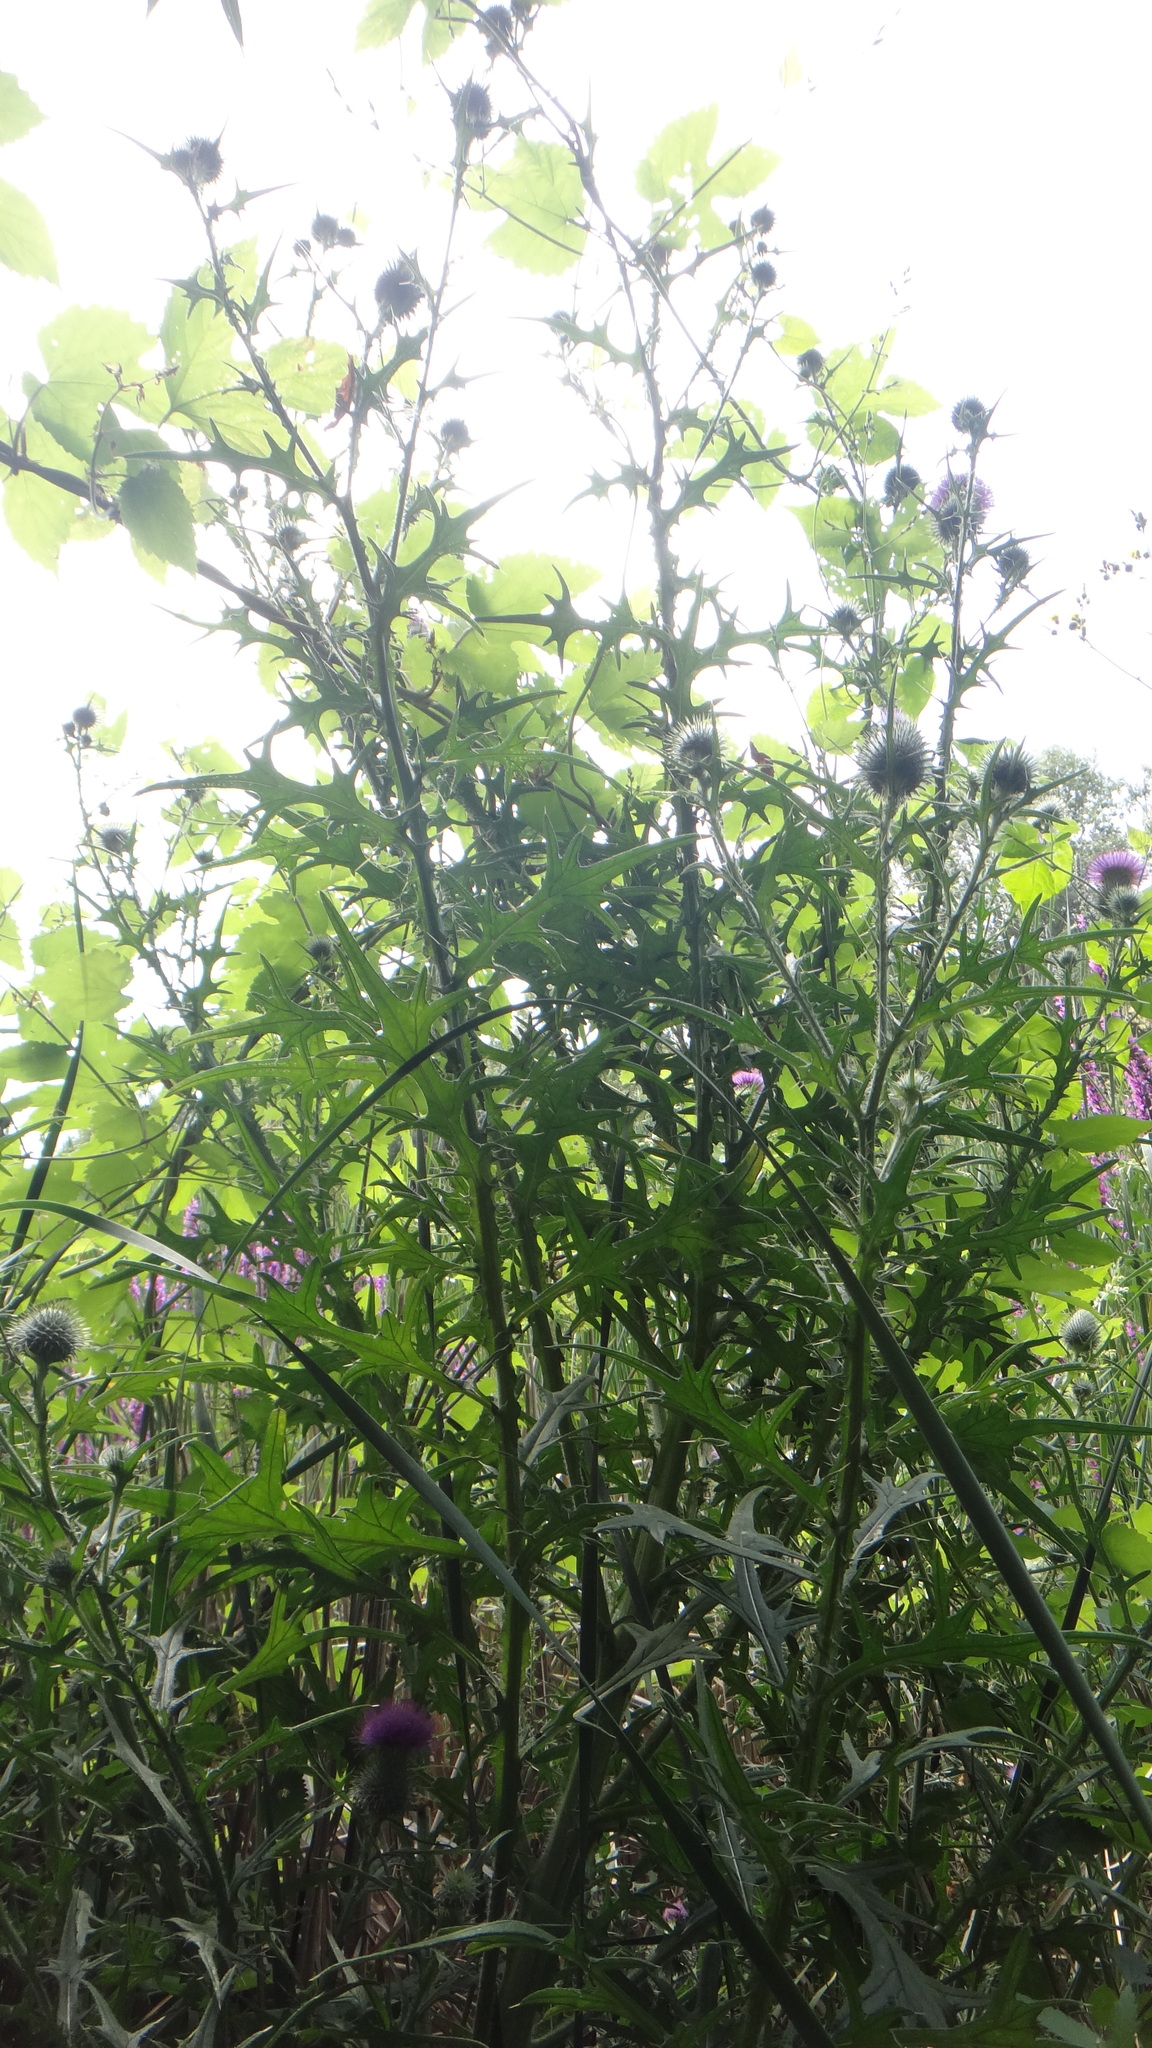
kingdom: Plantae
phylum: Tracheophyta
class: Magnoliopsida
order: Asterales
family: Asteraceae
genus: Cirsium
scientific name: Cirsium vulgare
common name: Bull thistle
